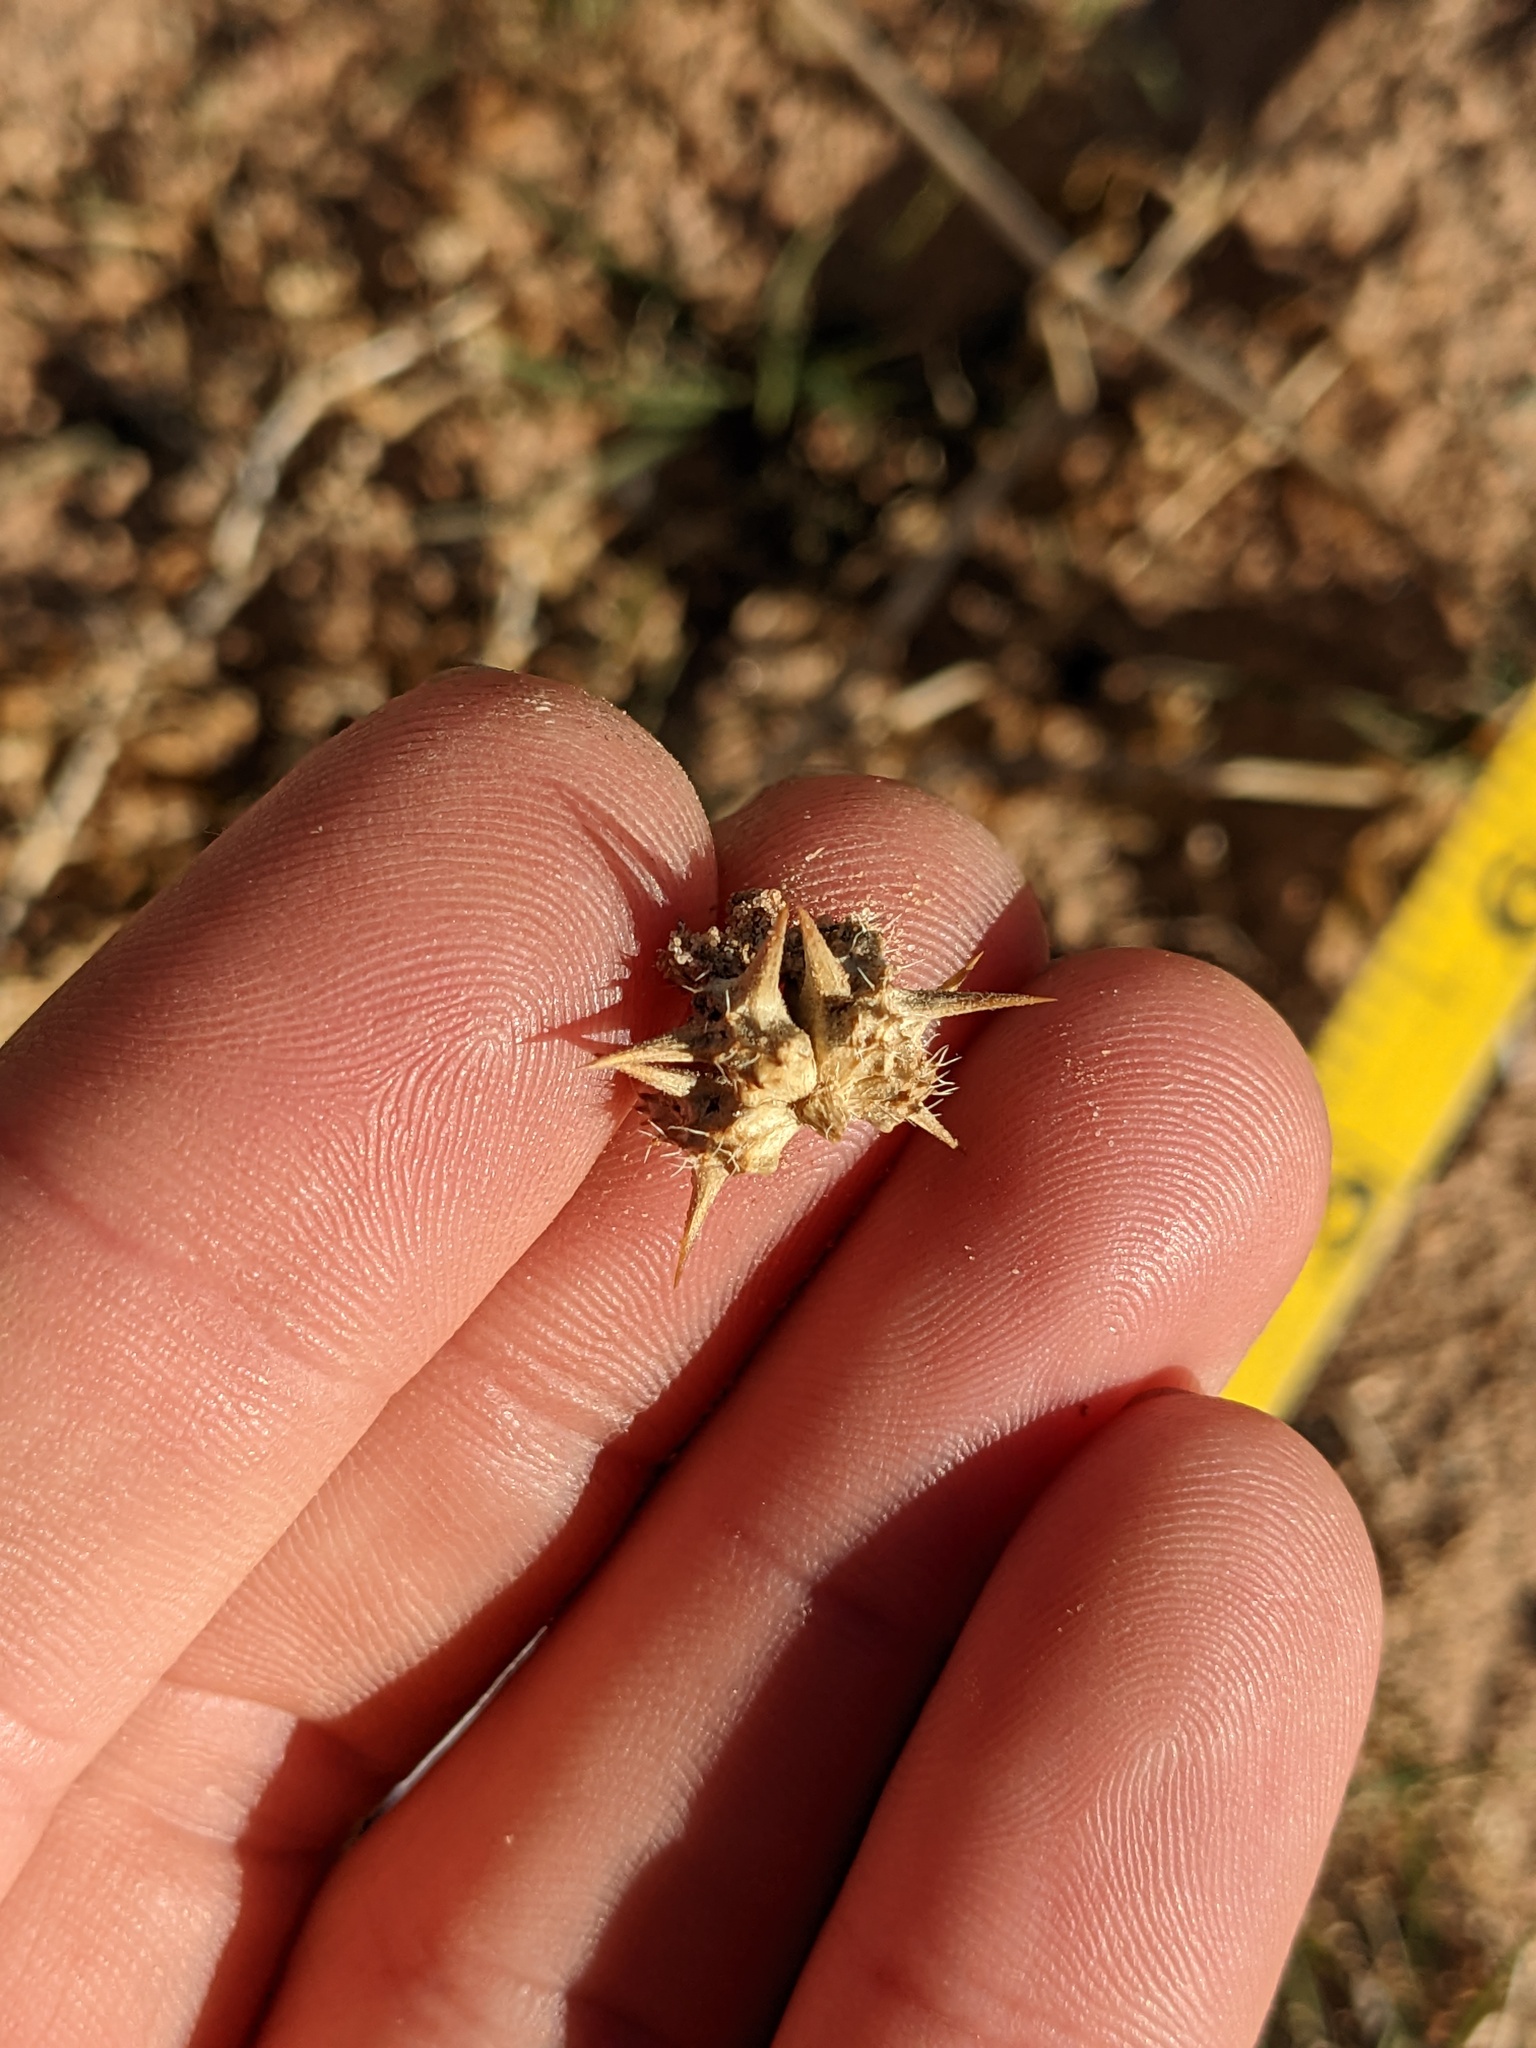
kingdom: Plantae
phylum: Tracheophyta
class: Magnoliopsida
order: Zygophyllales
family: Zygophyllaceae
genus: Tribulus
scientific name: Tribulus terrestris
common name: Puncturevine
